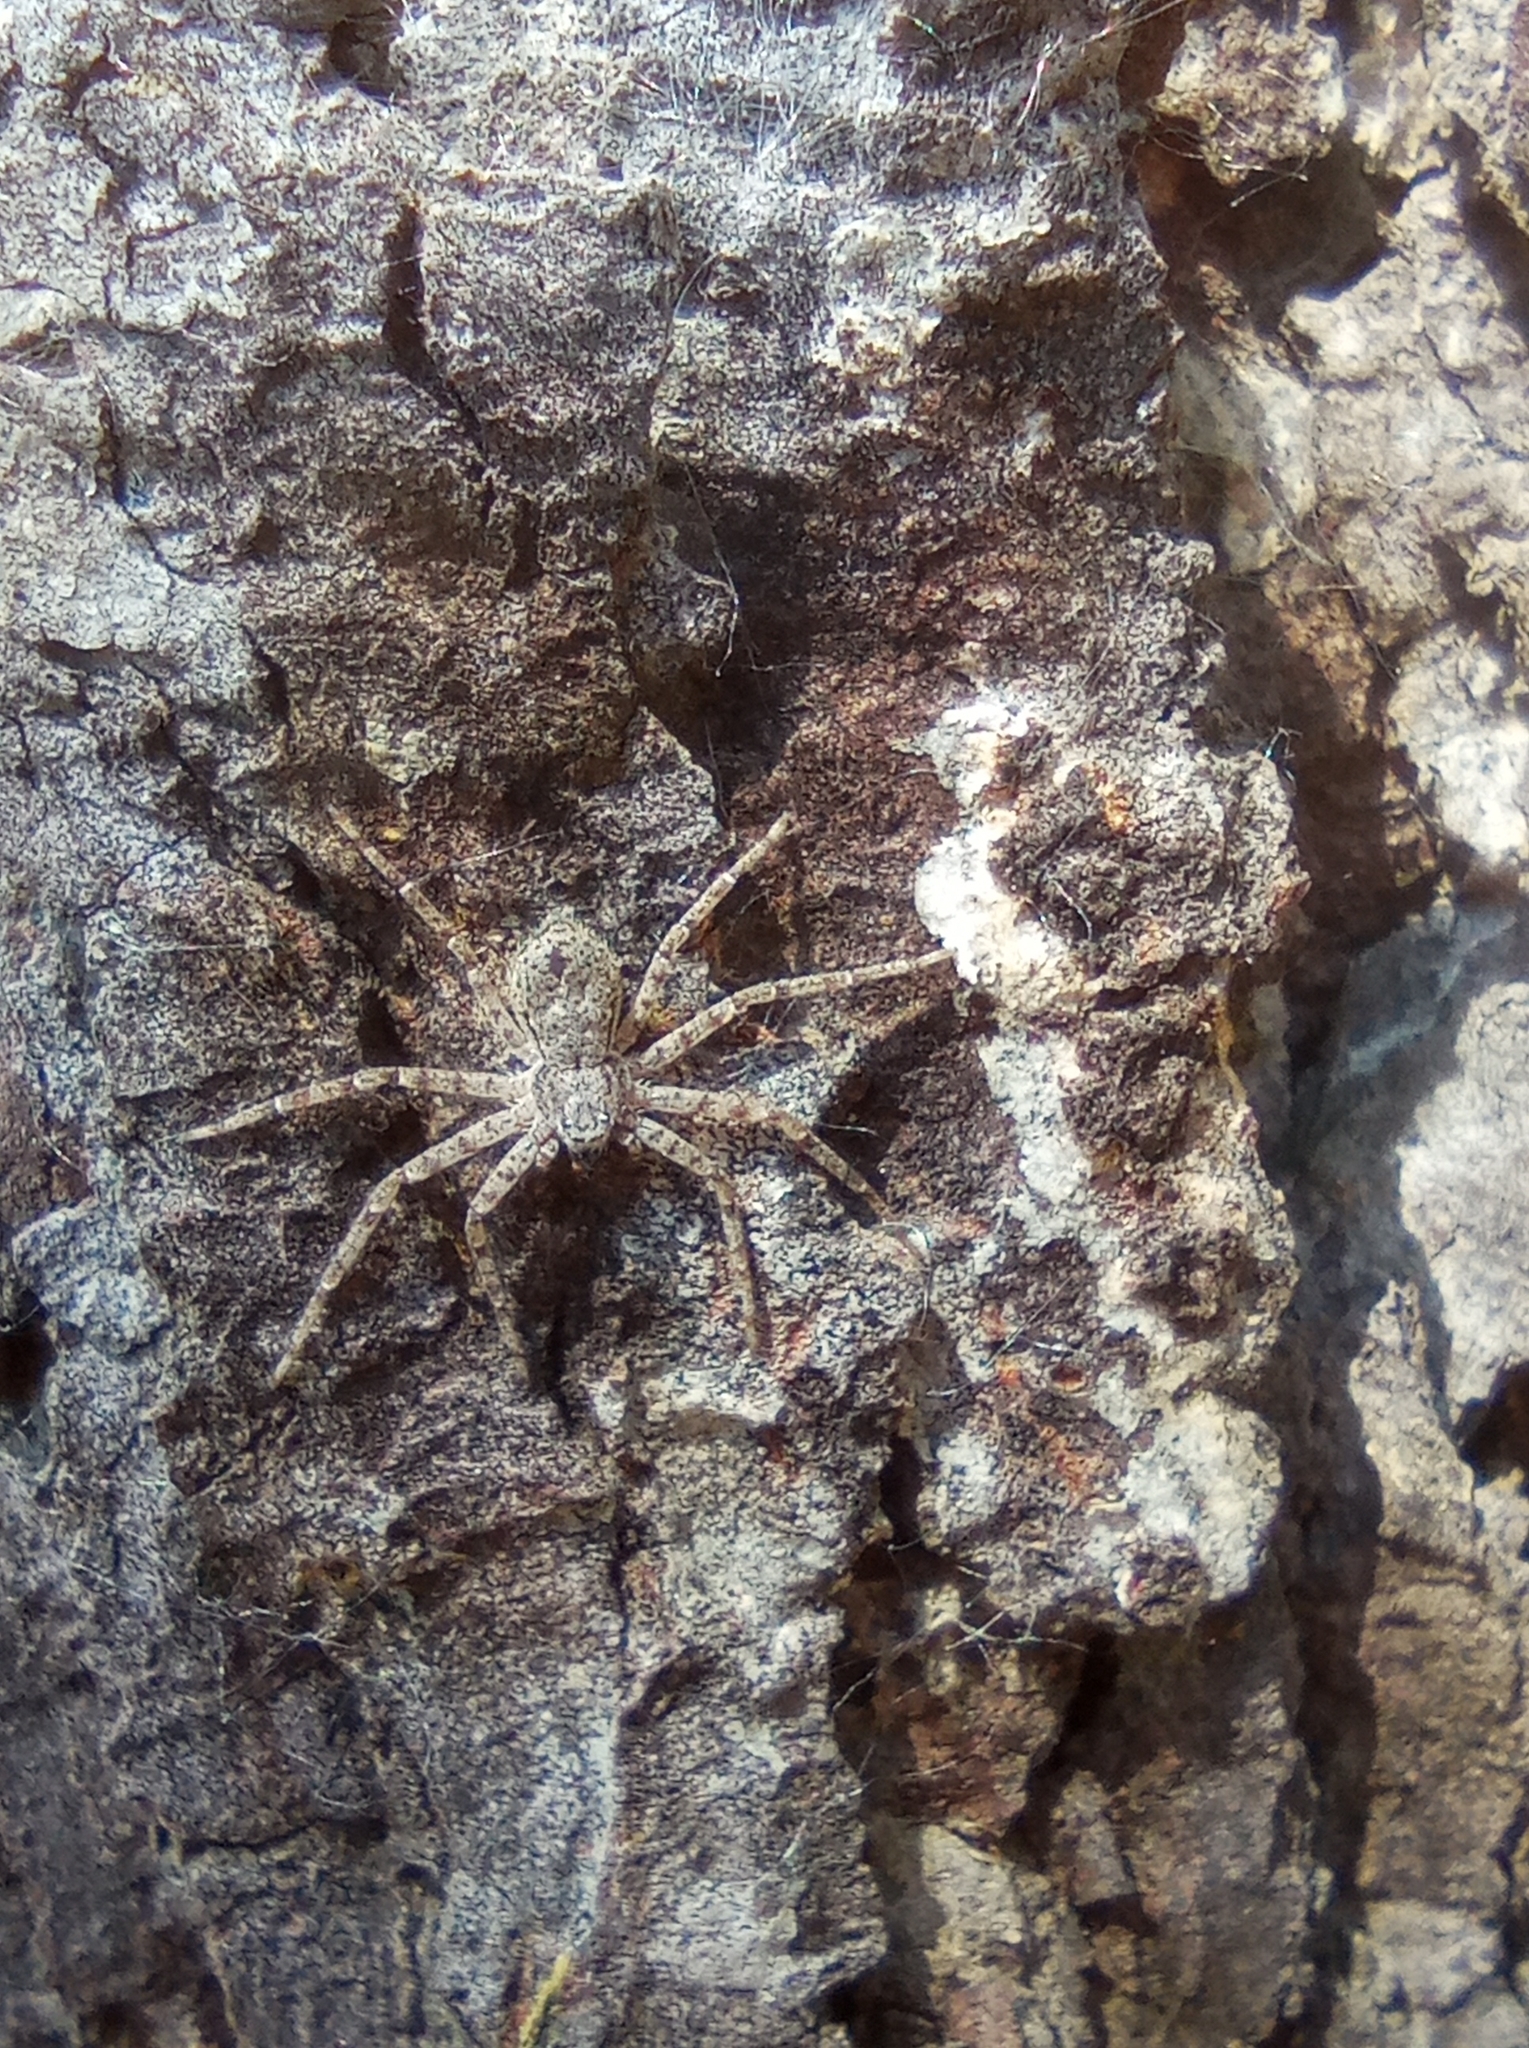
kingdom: Animalia
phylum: Arthropoda
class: Arachnida
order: Araneae
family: Philodromidae
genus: Philodromus
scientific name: Philodromus margaritatus
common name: Lichen running-spider
